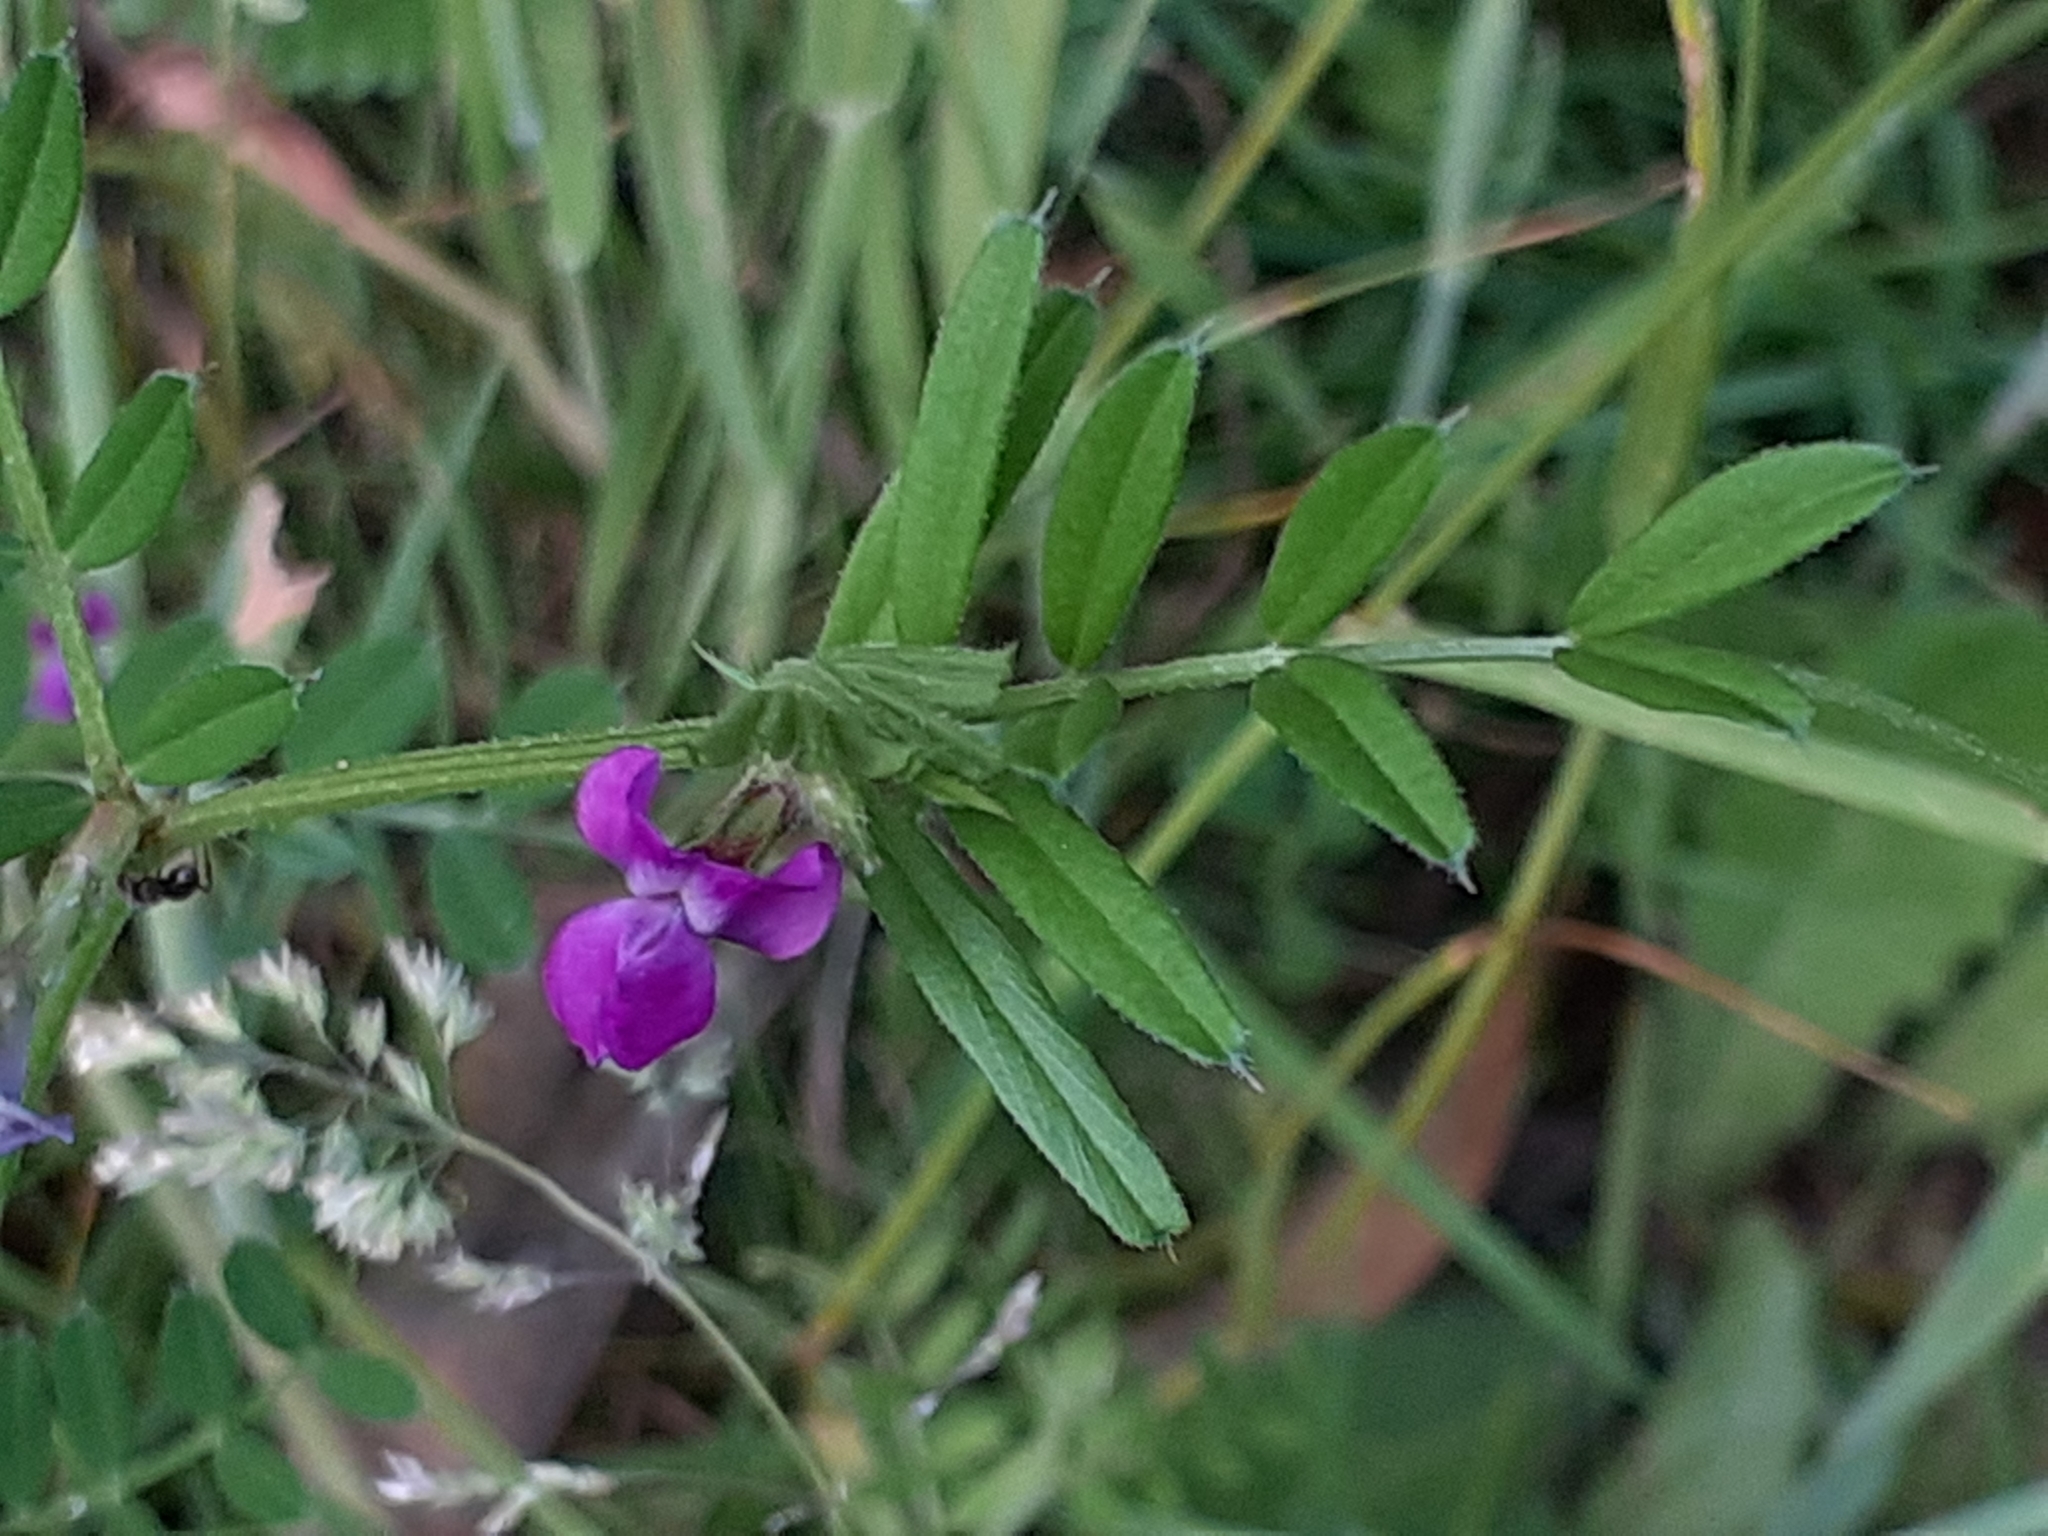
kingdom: Plantae
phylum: Tracheophyta
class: Magnoliopsida
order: Fabales
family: Fabaceae
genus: Vicia
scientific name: Vicia sativa
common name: Garden vetch
